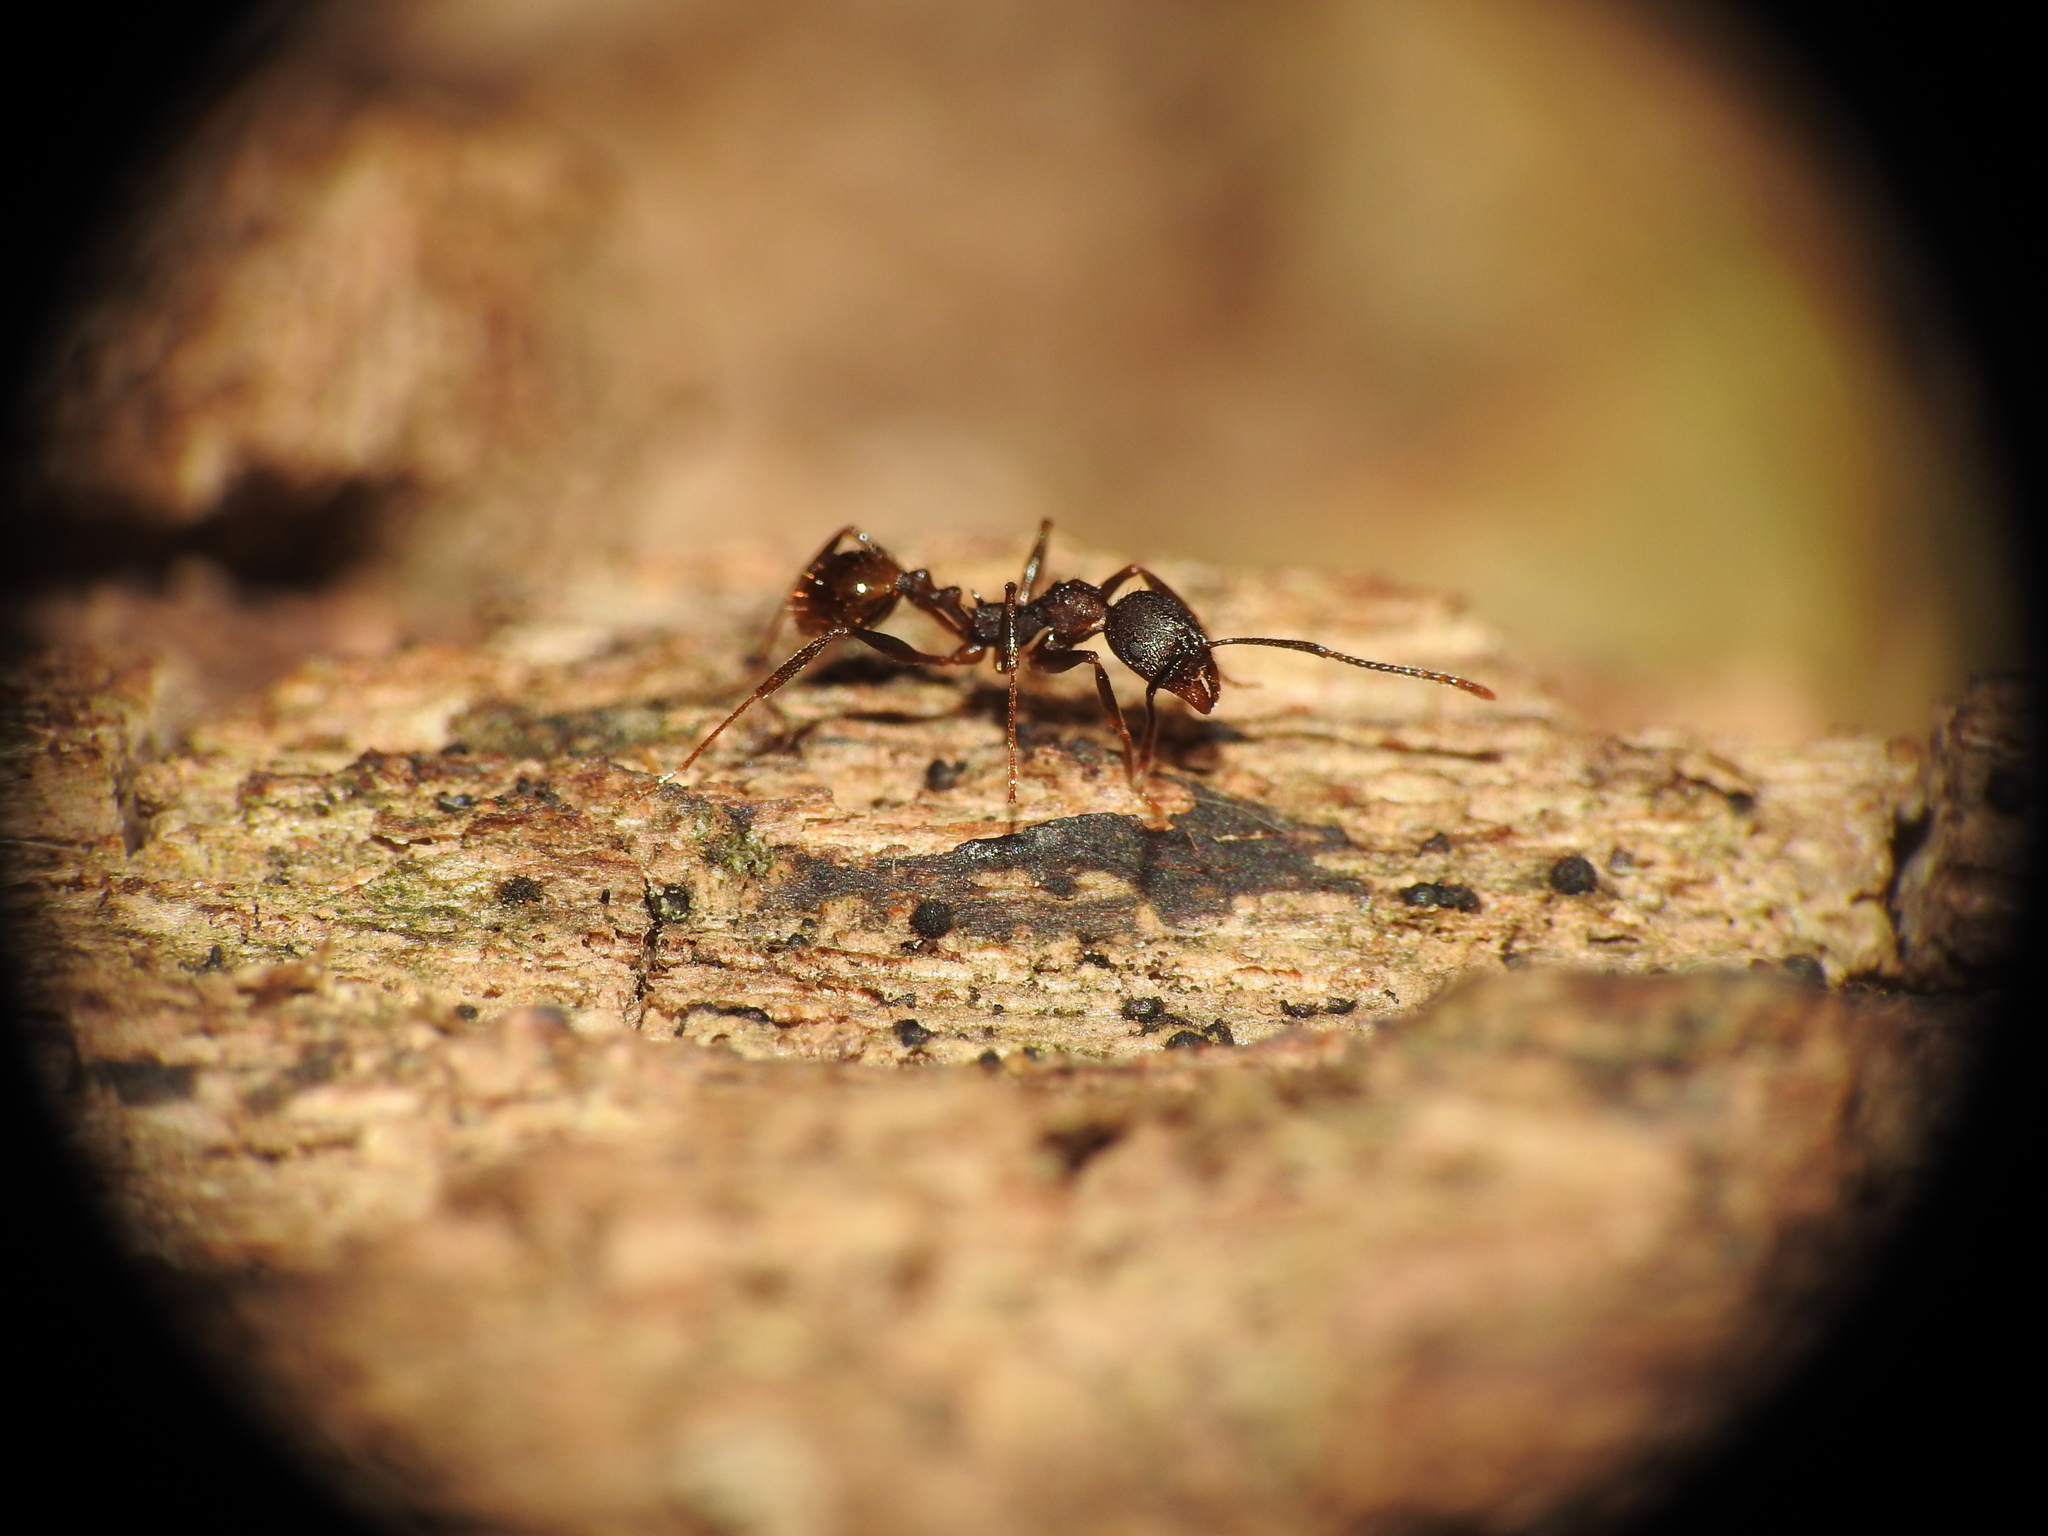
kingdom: Animalia
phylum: Arthropoda
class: Insecta
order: Hymenoptera
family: Formicidae
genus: Aphaenogaster
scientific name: Aphaenogaster fulva
